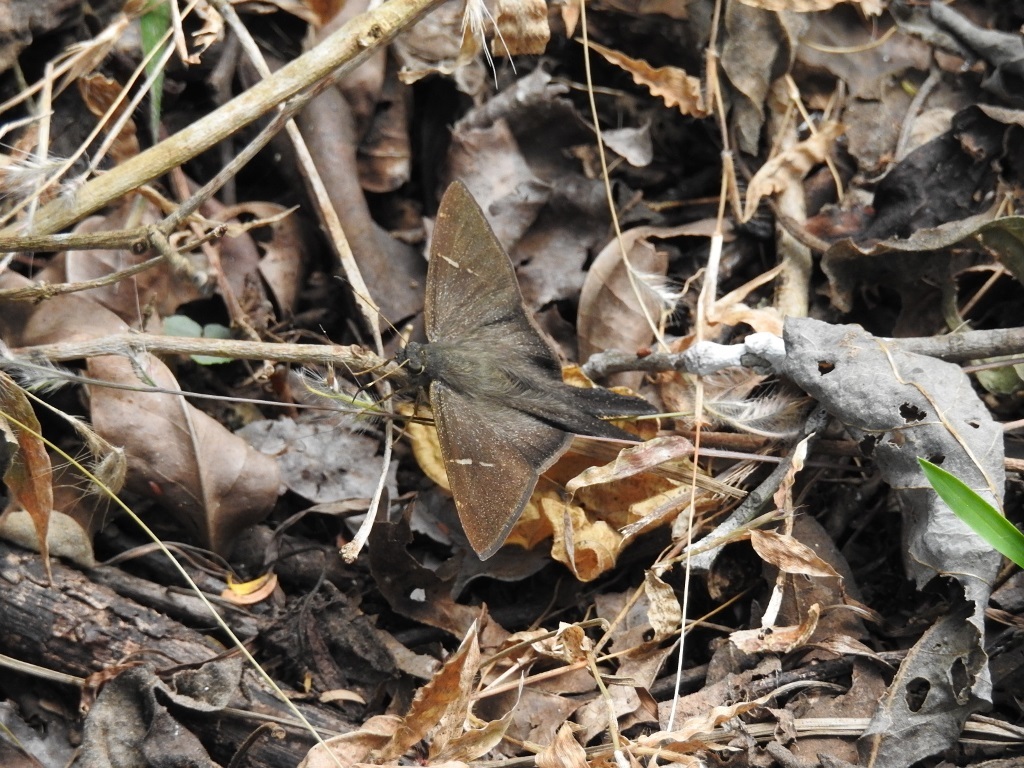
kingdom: Animalia
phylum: Arthropoda
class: Insecta
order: Lepidoptera
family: Hesperiidae
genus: Urbanus
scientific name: Urbanus procne
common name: Brown longtail
